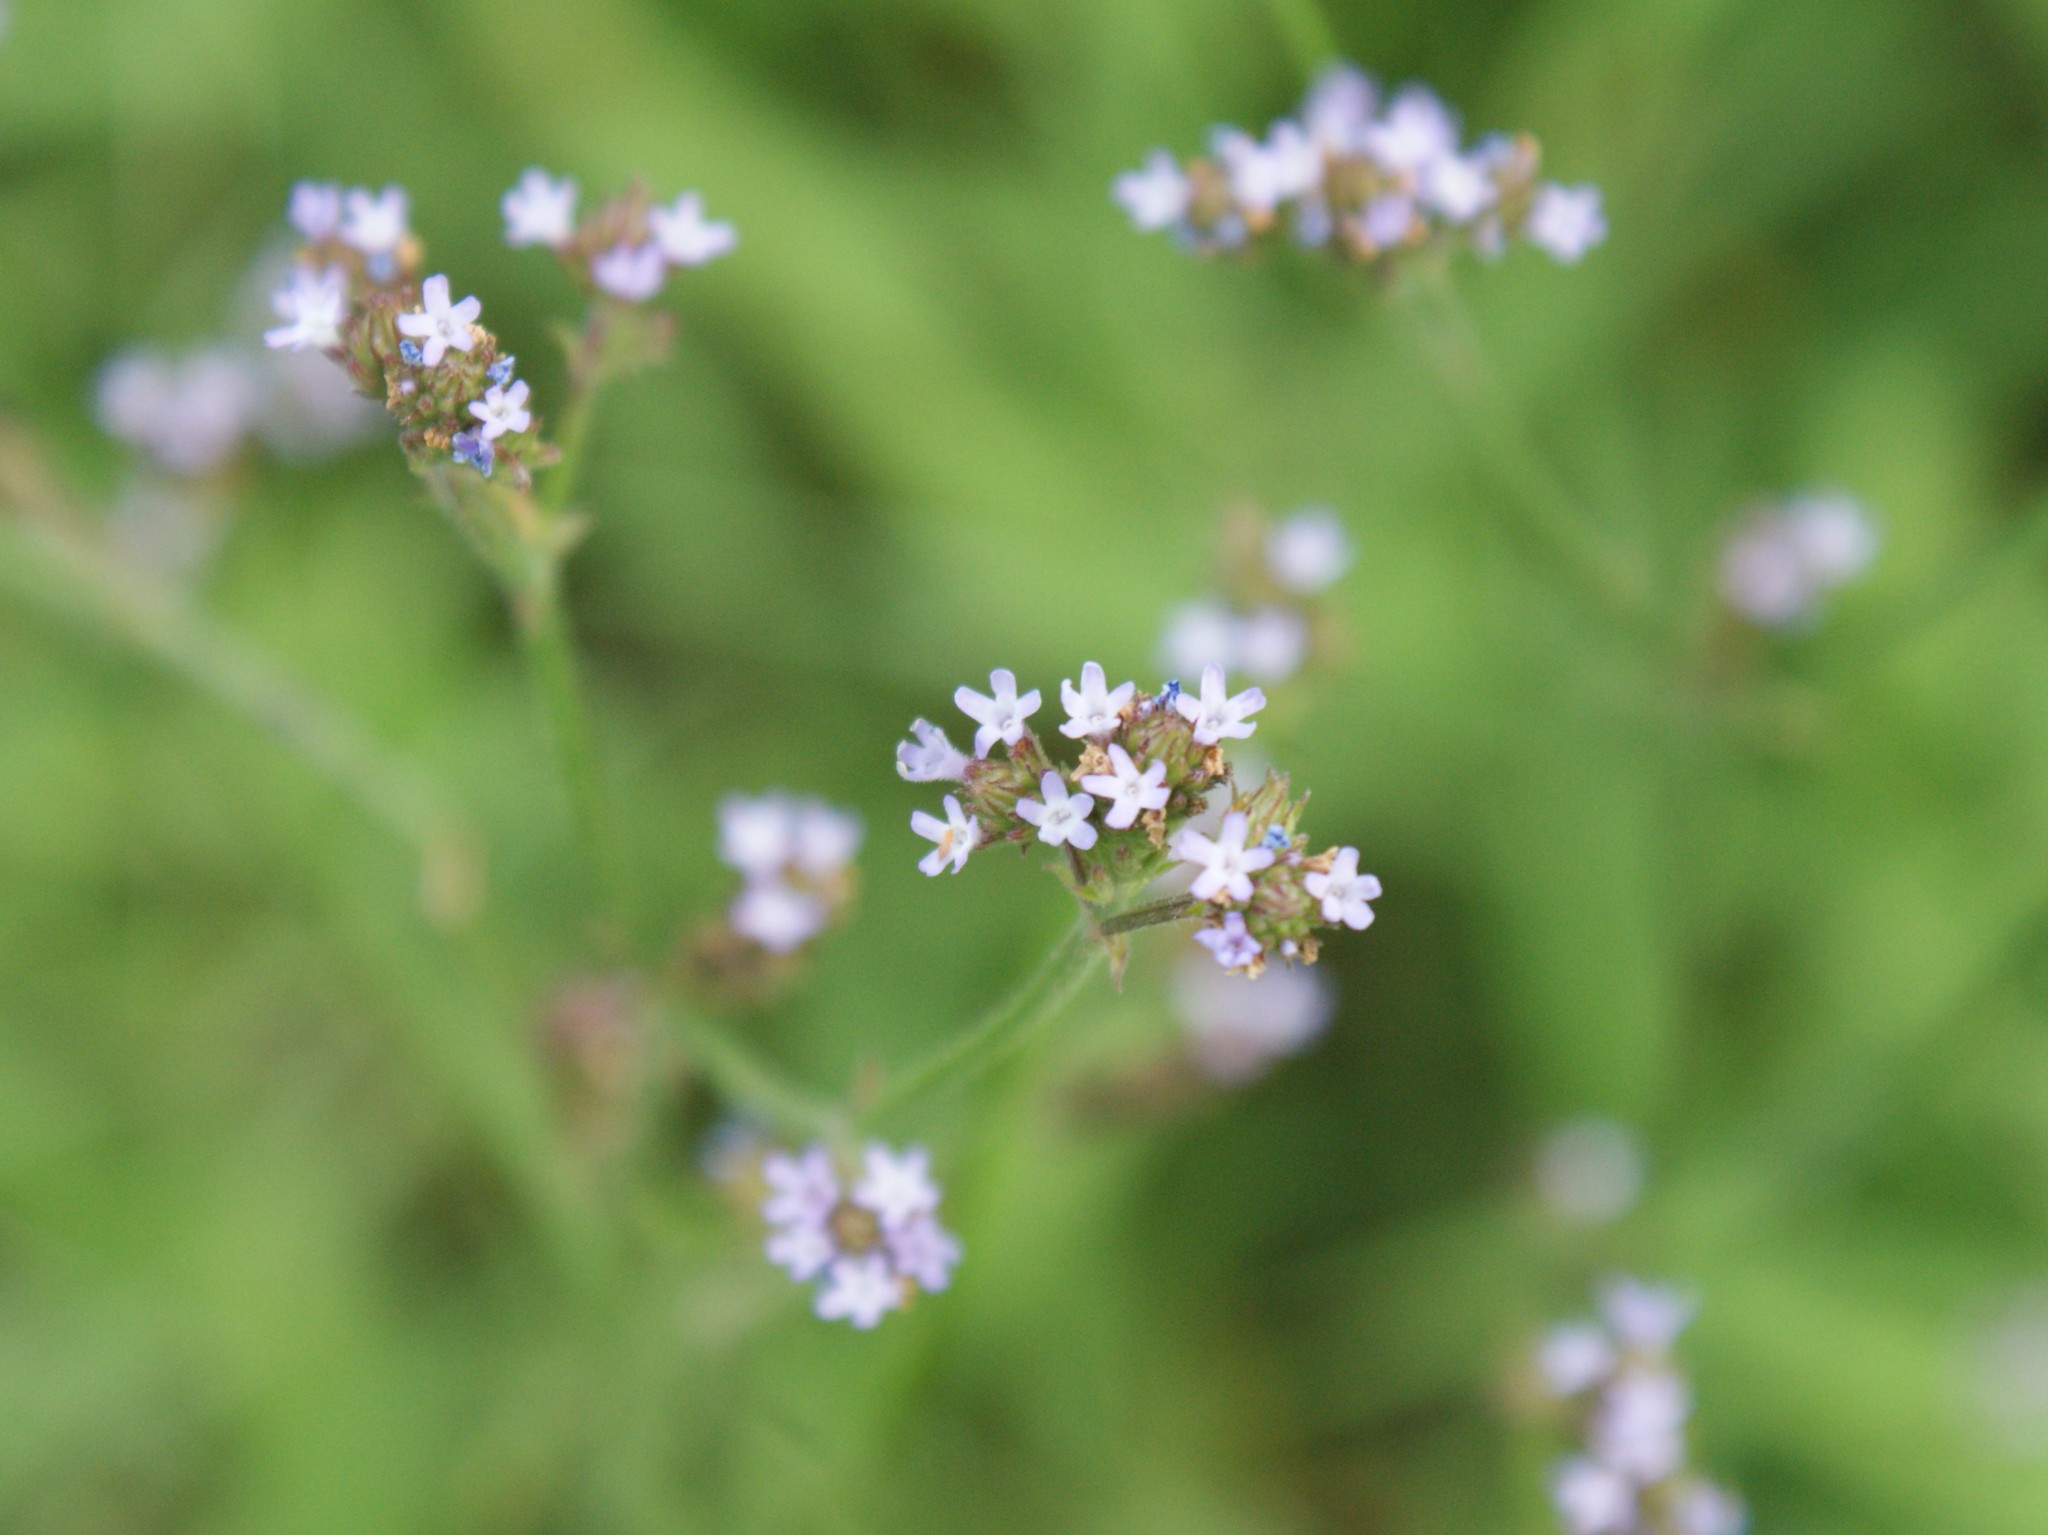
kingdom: Plantae
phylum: Tracheophyta
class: Magnoliopsida
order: Lamiales
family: Verbenaceae
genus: Verbena
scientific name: Verbena brasiliensis
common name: Brazilian vervain
